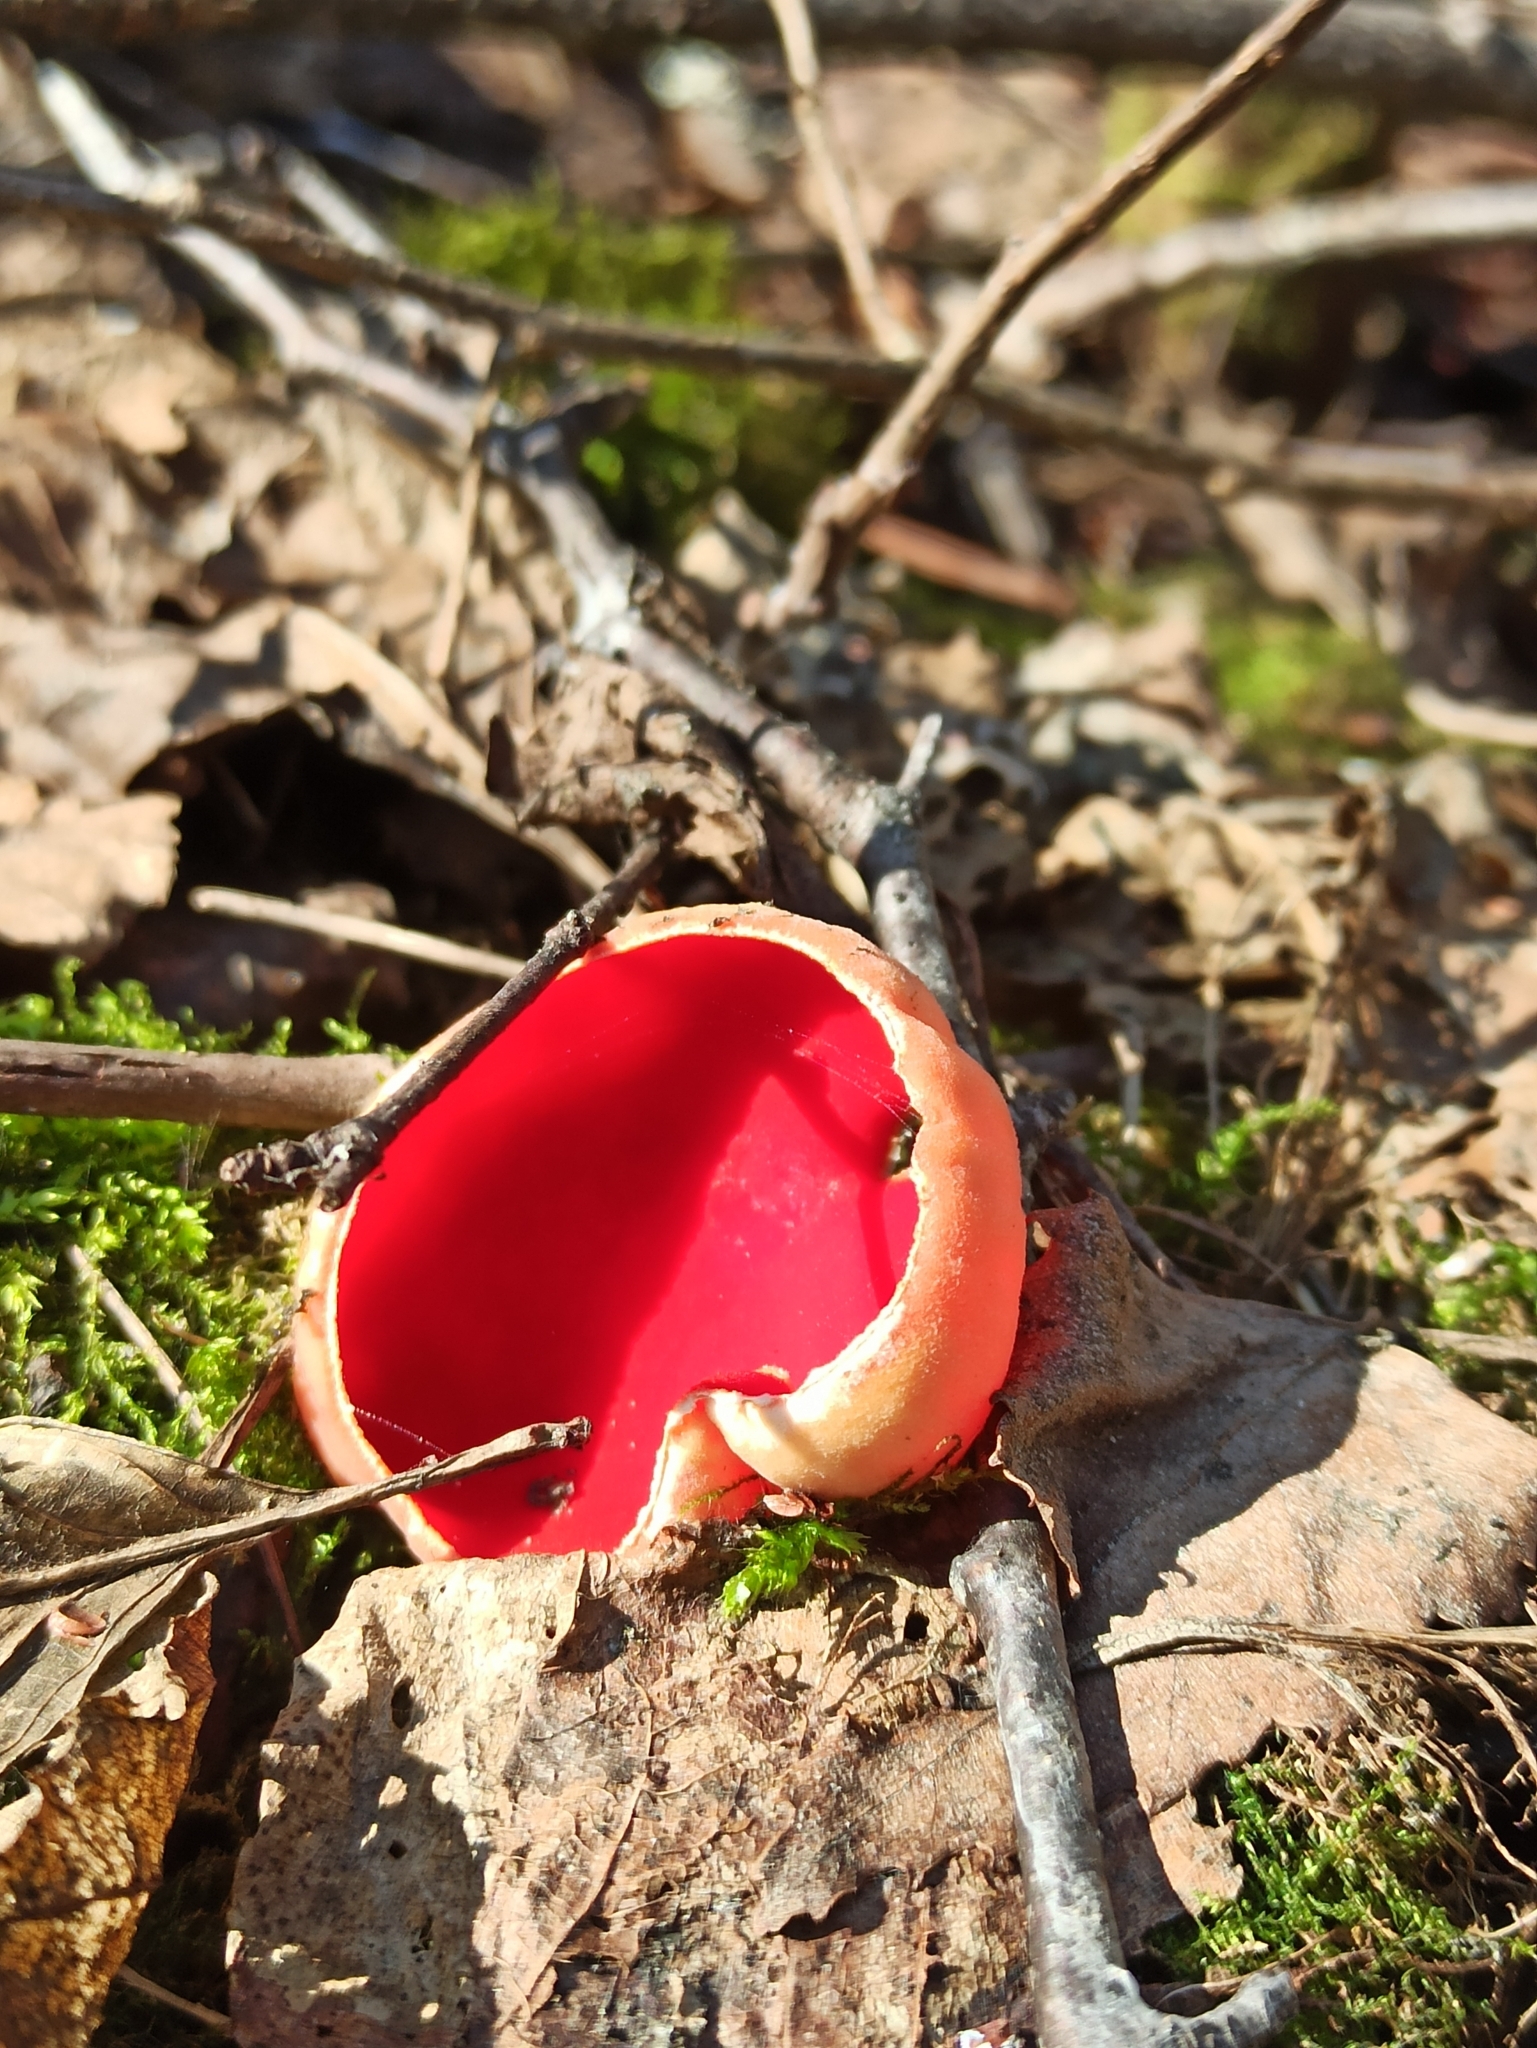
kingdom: Fungi
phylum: Ascomycota
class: Pezizomycetes
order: Pezizales
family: Sarcoscyphaceae
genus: Sarcoscypha
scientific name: Sarcoscypha austriaca
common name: Scarlet elfcup
